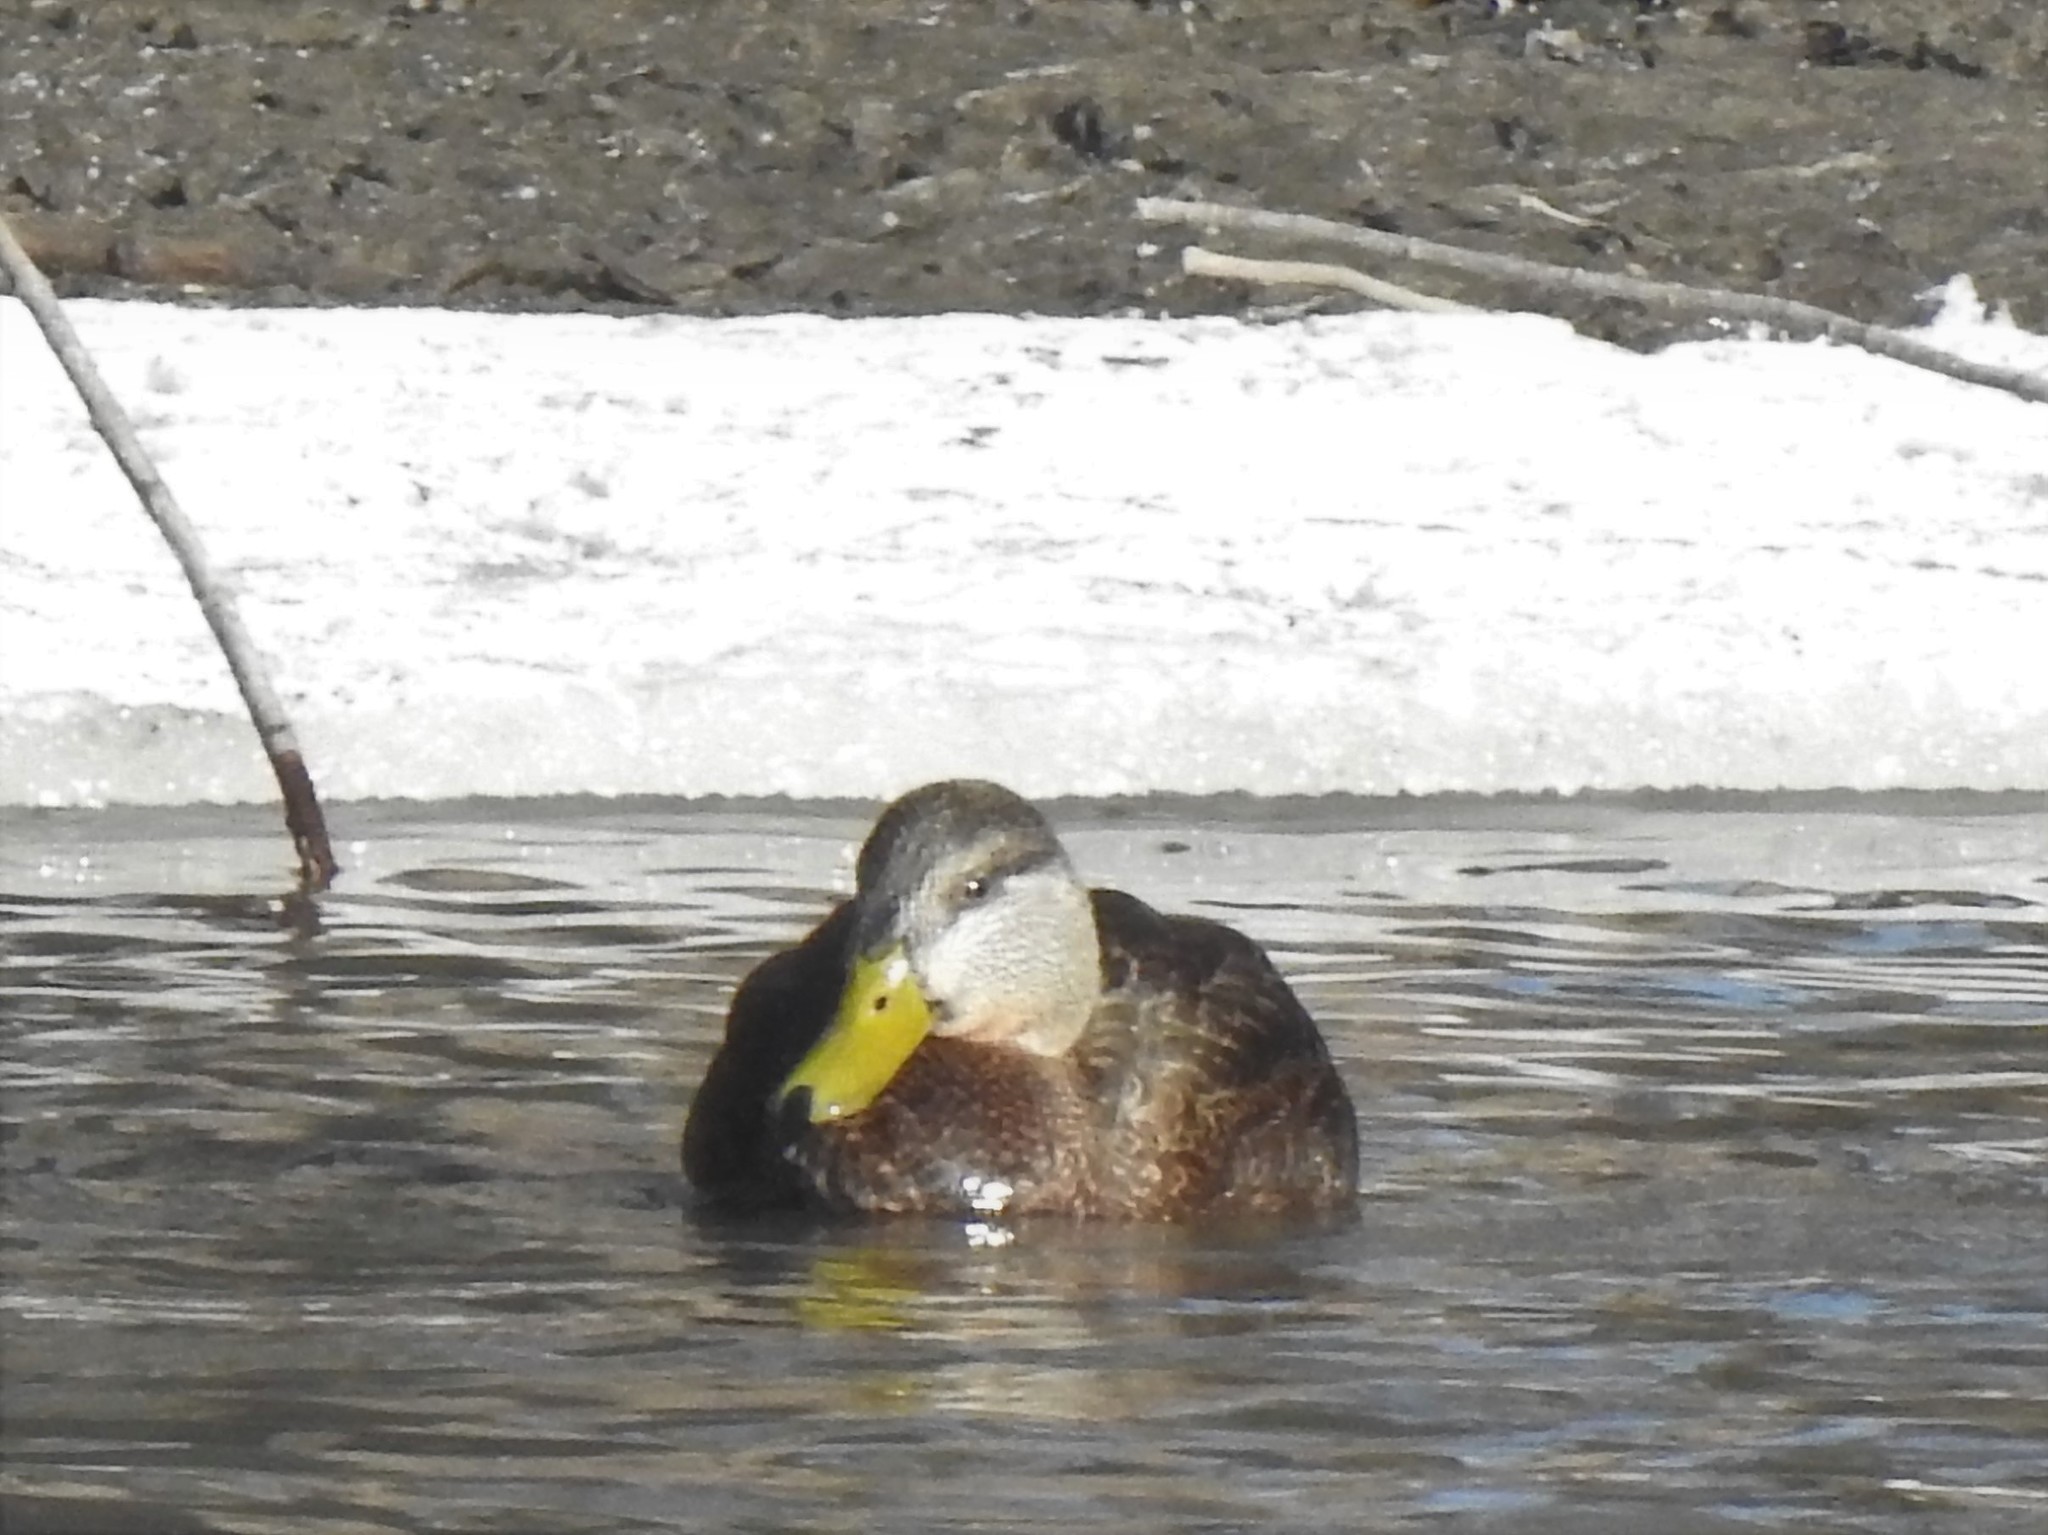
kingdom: Animalia
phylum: Chordata
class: Aves
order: Anseriformes
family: Anatidae
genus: Anas
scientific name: Anas rubripes
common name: American black duck
